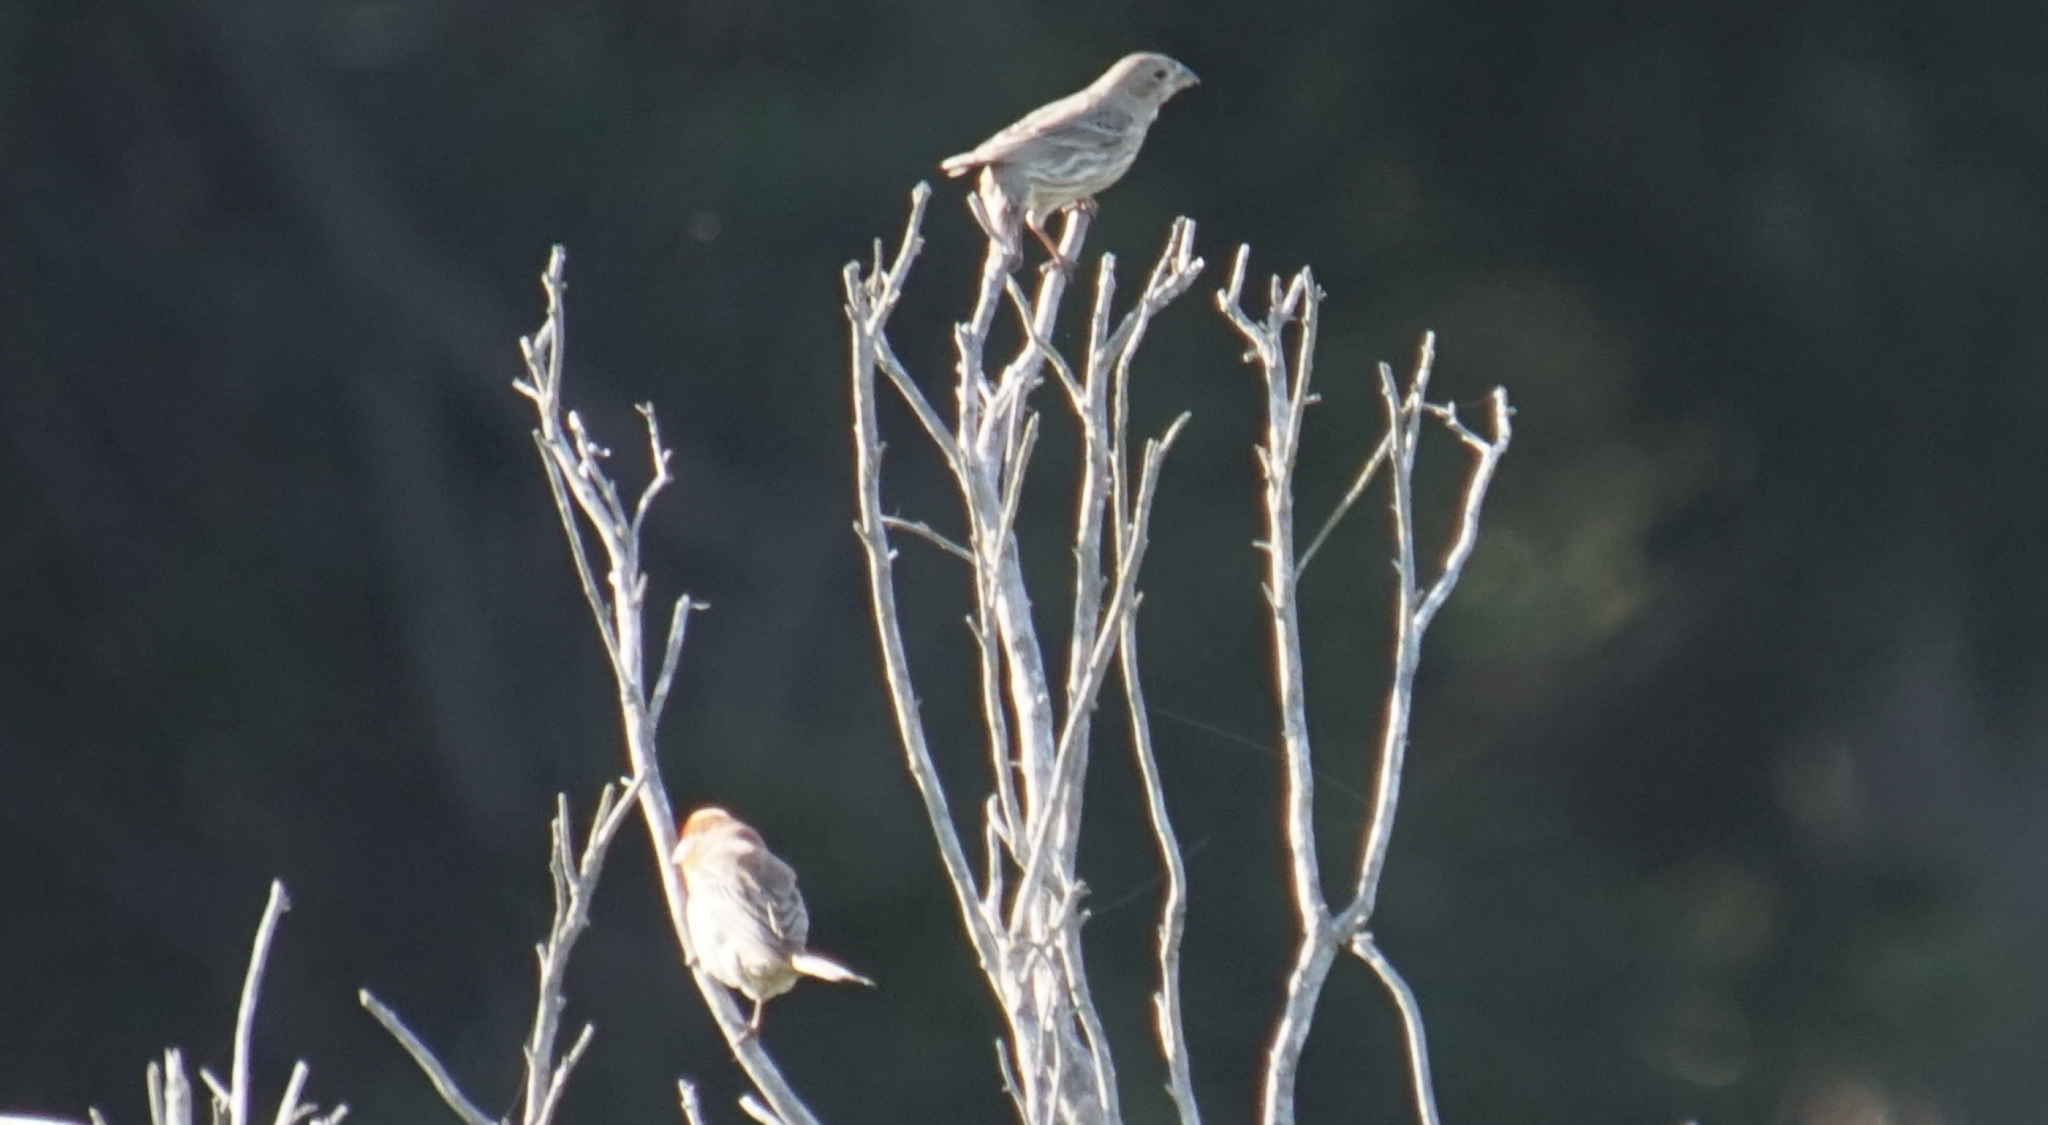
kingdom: Animalia
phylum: Chordata
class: Aves
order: Passeriformes
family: Fringillidae
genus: Haemorhous
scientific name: Haemorhous mexicanus
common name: House finch
